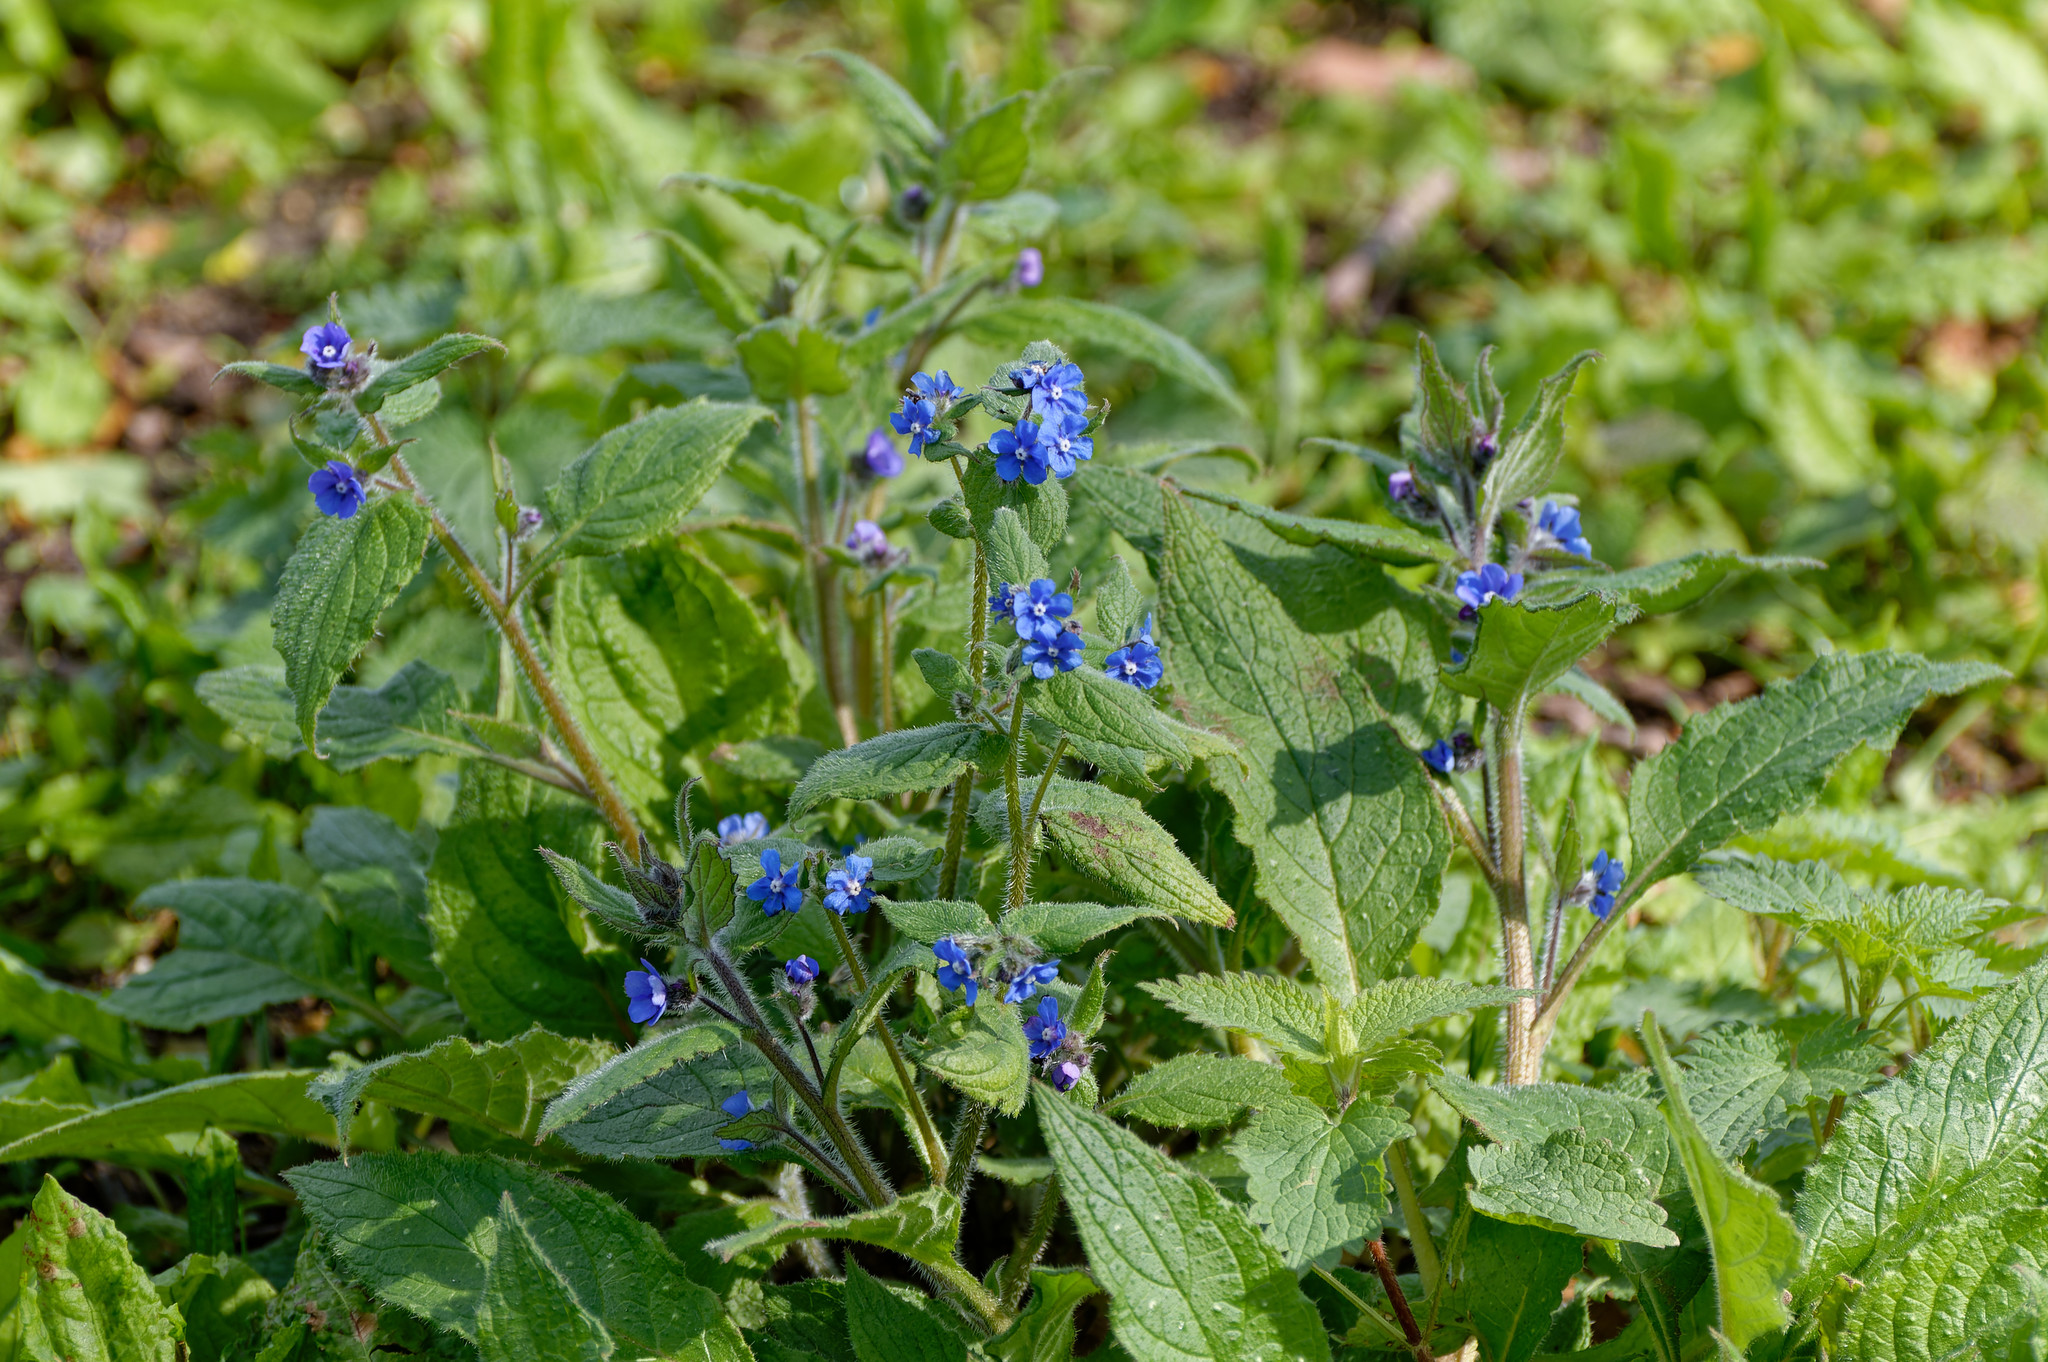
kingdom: Plantae
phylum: Tracheophyta
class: Magnoliopsida
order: Boraginales
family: Boraginaceae
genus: Pentaglottis
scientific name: Pentaglottis sempervirens
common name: Green alkanet
